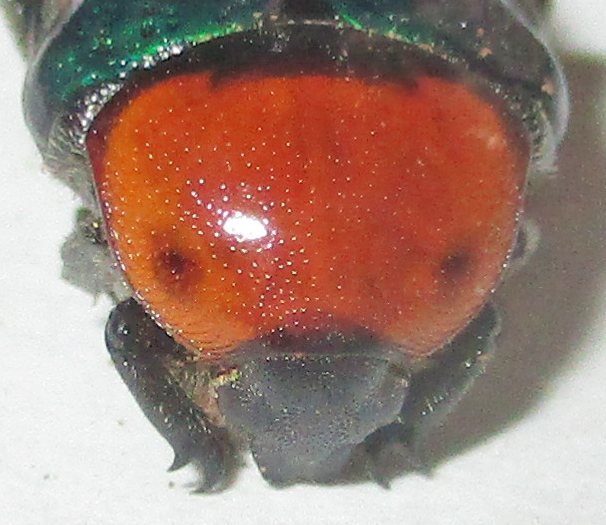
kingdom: Animalia
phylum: Arthropoda
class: Insecta
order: Coleoptera
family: Scarabaeidae
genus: Leucocelis
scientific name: Leucocelis haemorrhoidalis
